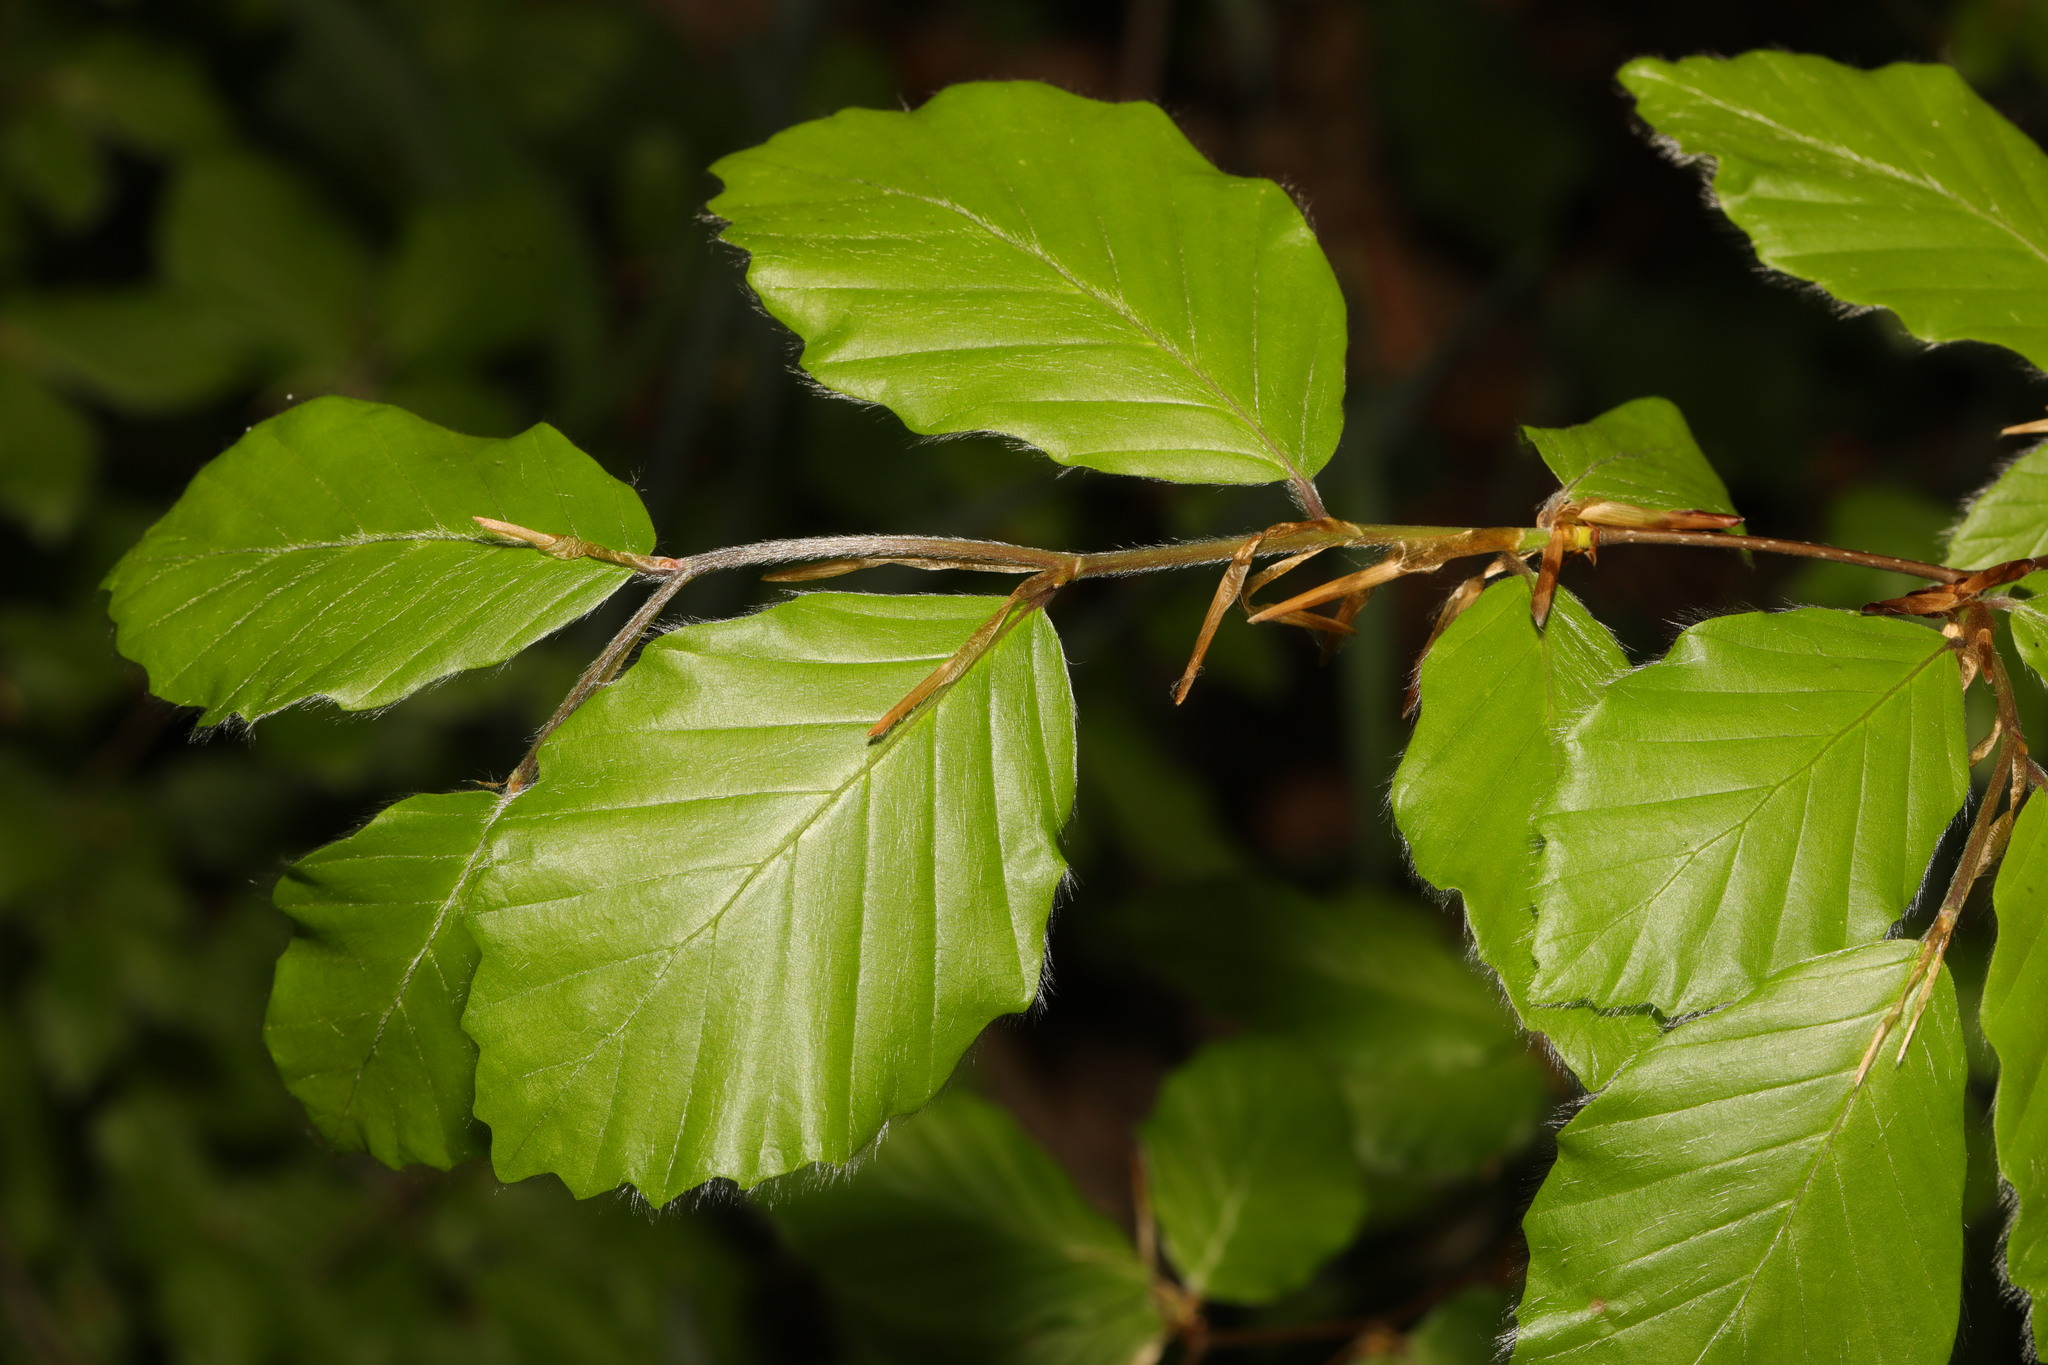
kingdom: Plantae
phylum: Tracheophyta
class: Magnoliopsida
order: Fagales
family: Fagaceae
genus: Fagus
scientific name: Fagus sylvatica
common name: Beech
